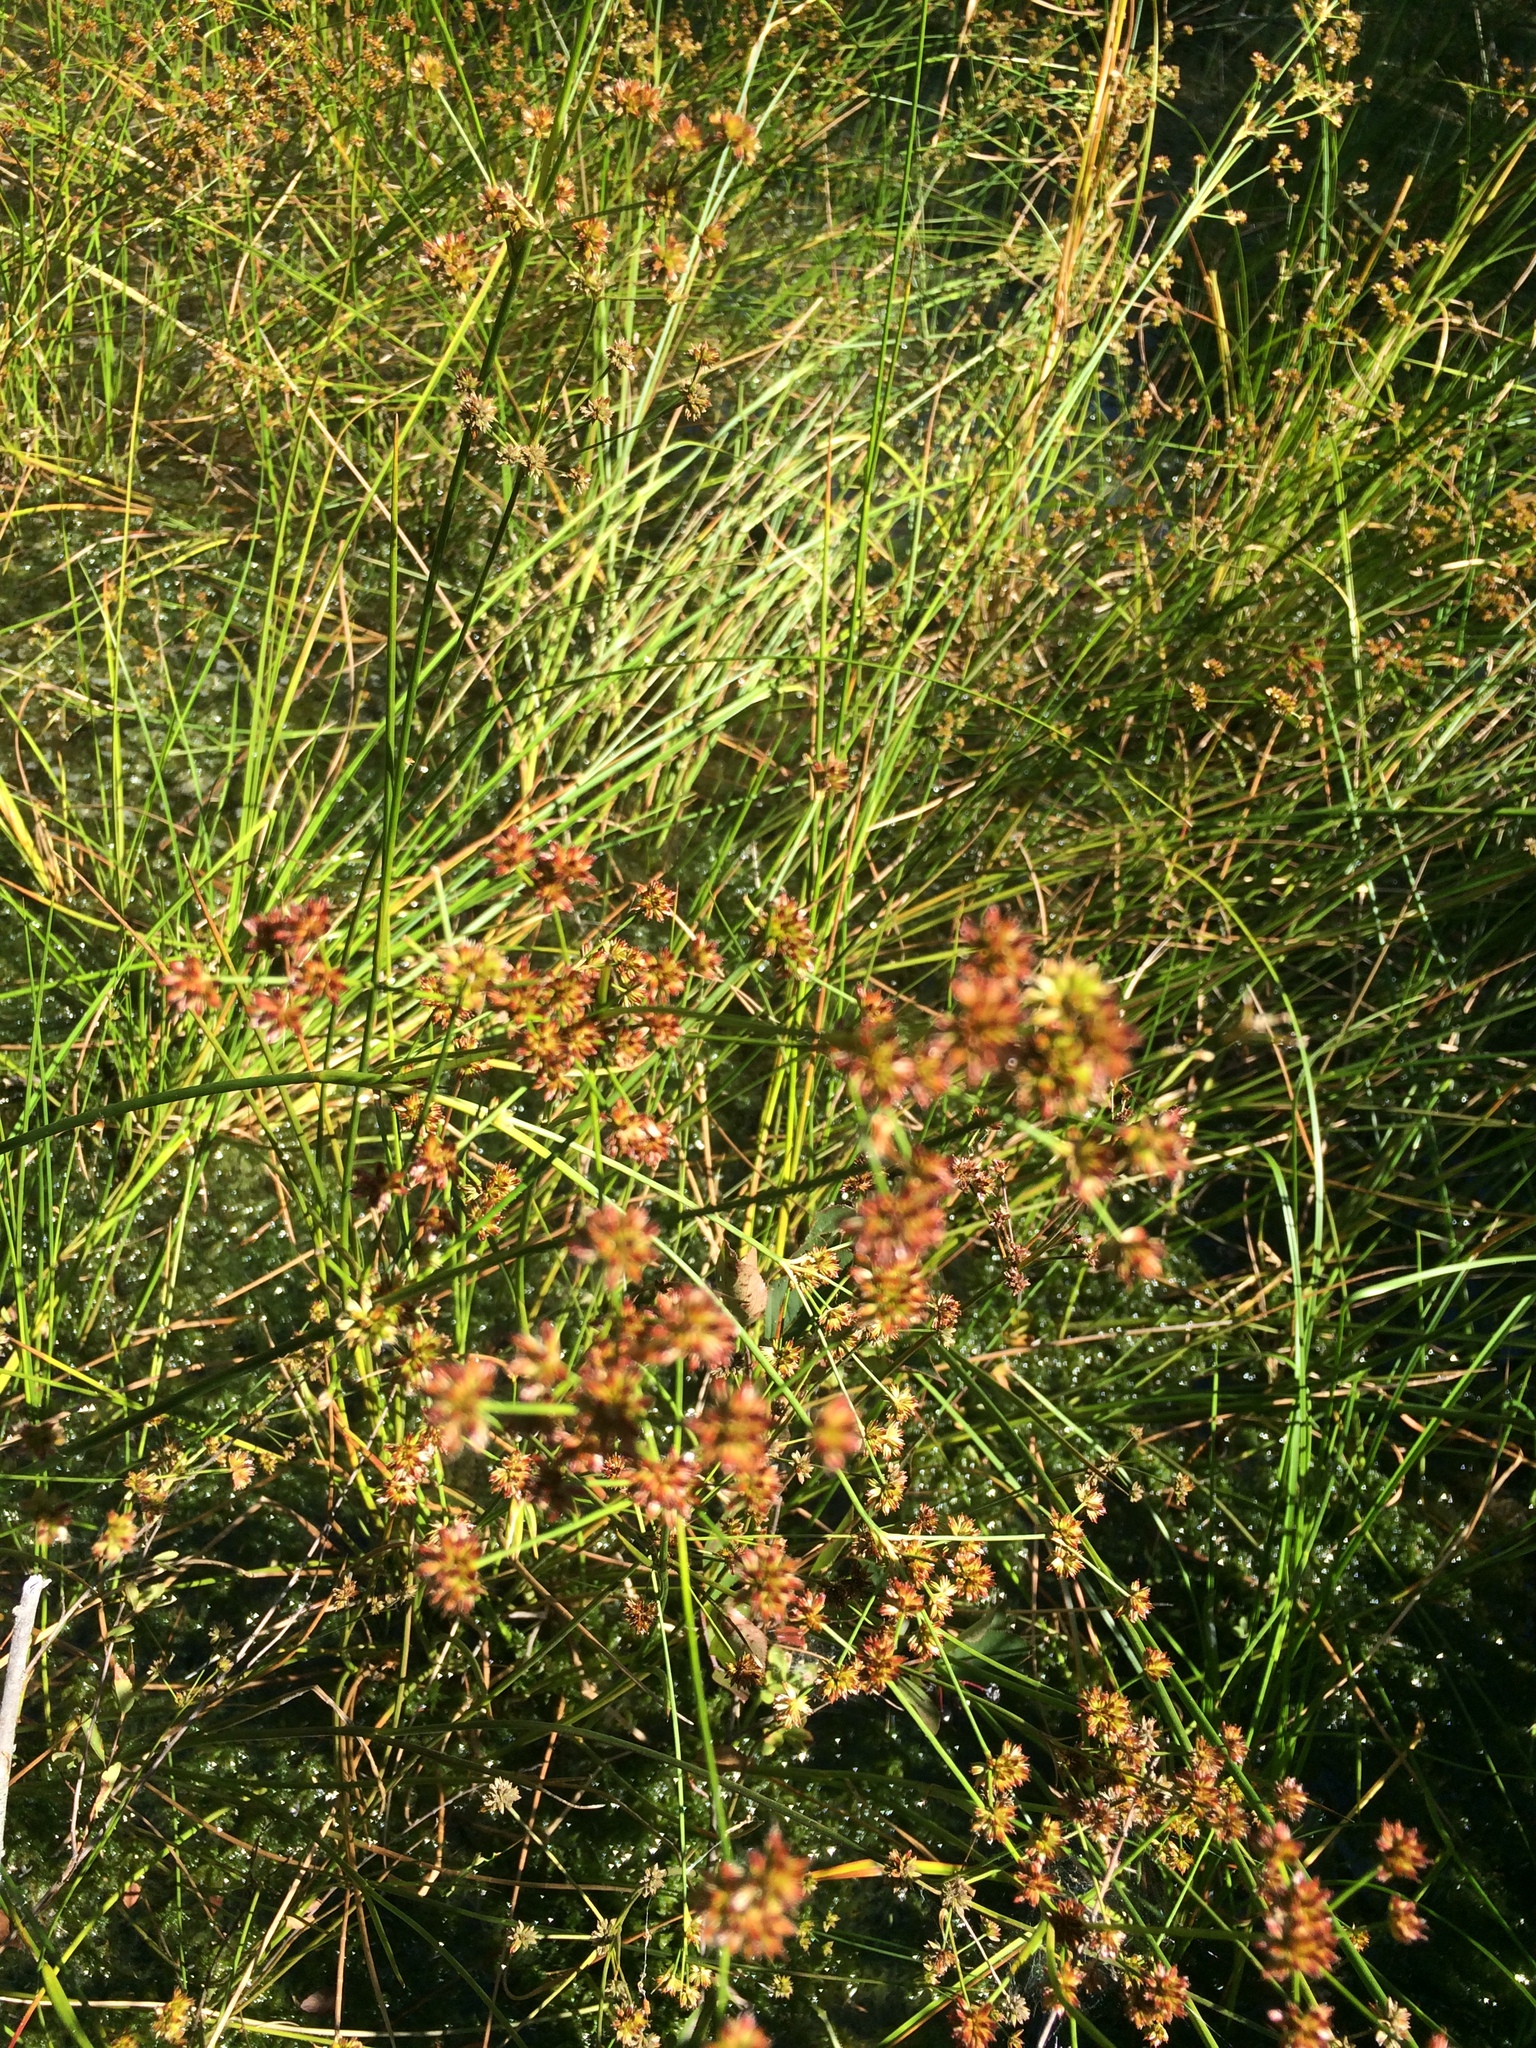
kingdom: Plantae
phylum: Tracheophyta
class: Liliopsida
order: Poales
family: Juncaceae
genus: Juncus
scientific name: Juncus canadensis
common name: Canada rush
